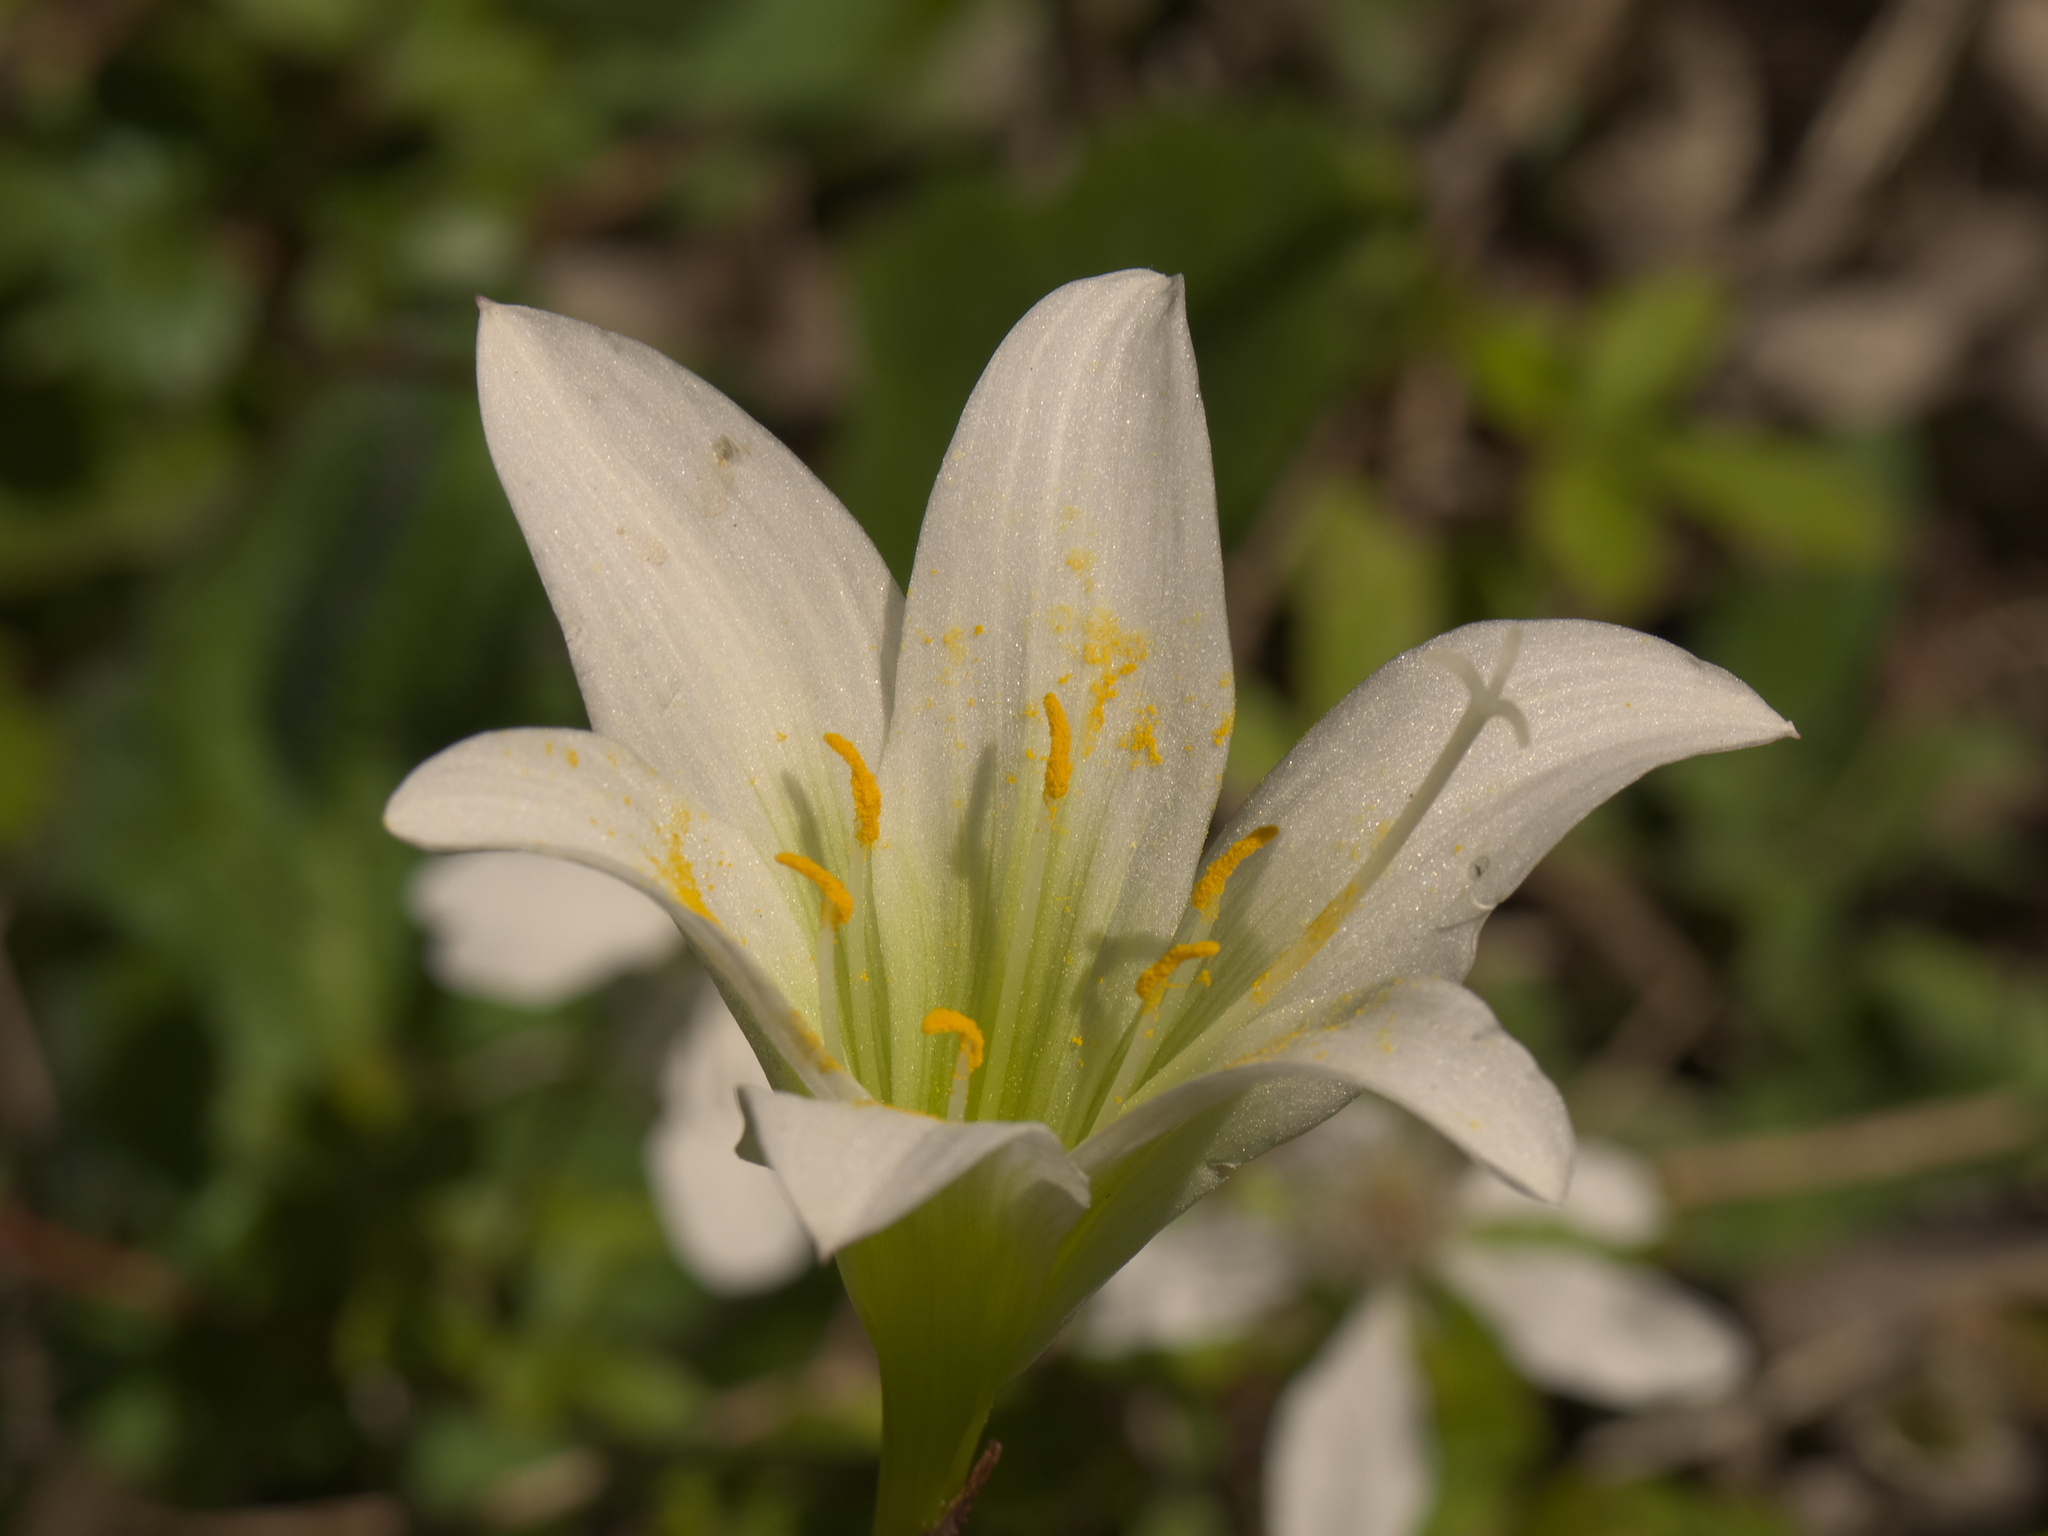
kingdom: Plantae
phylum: Tracheophyta
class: Liliopsida
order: Asparagales
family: Amaryllidaceae
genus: Zephyranthes
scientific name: Zephyranthes treatiae
